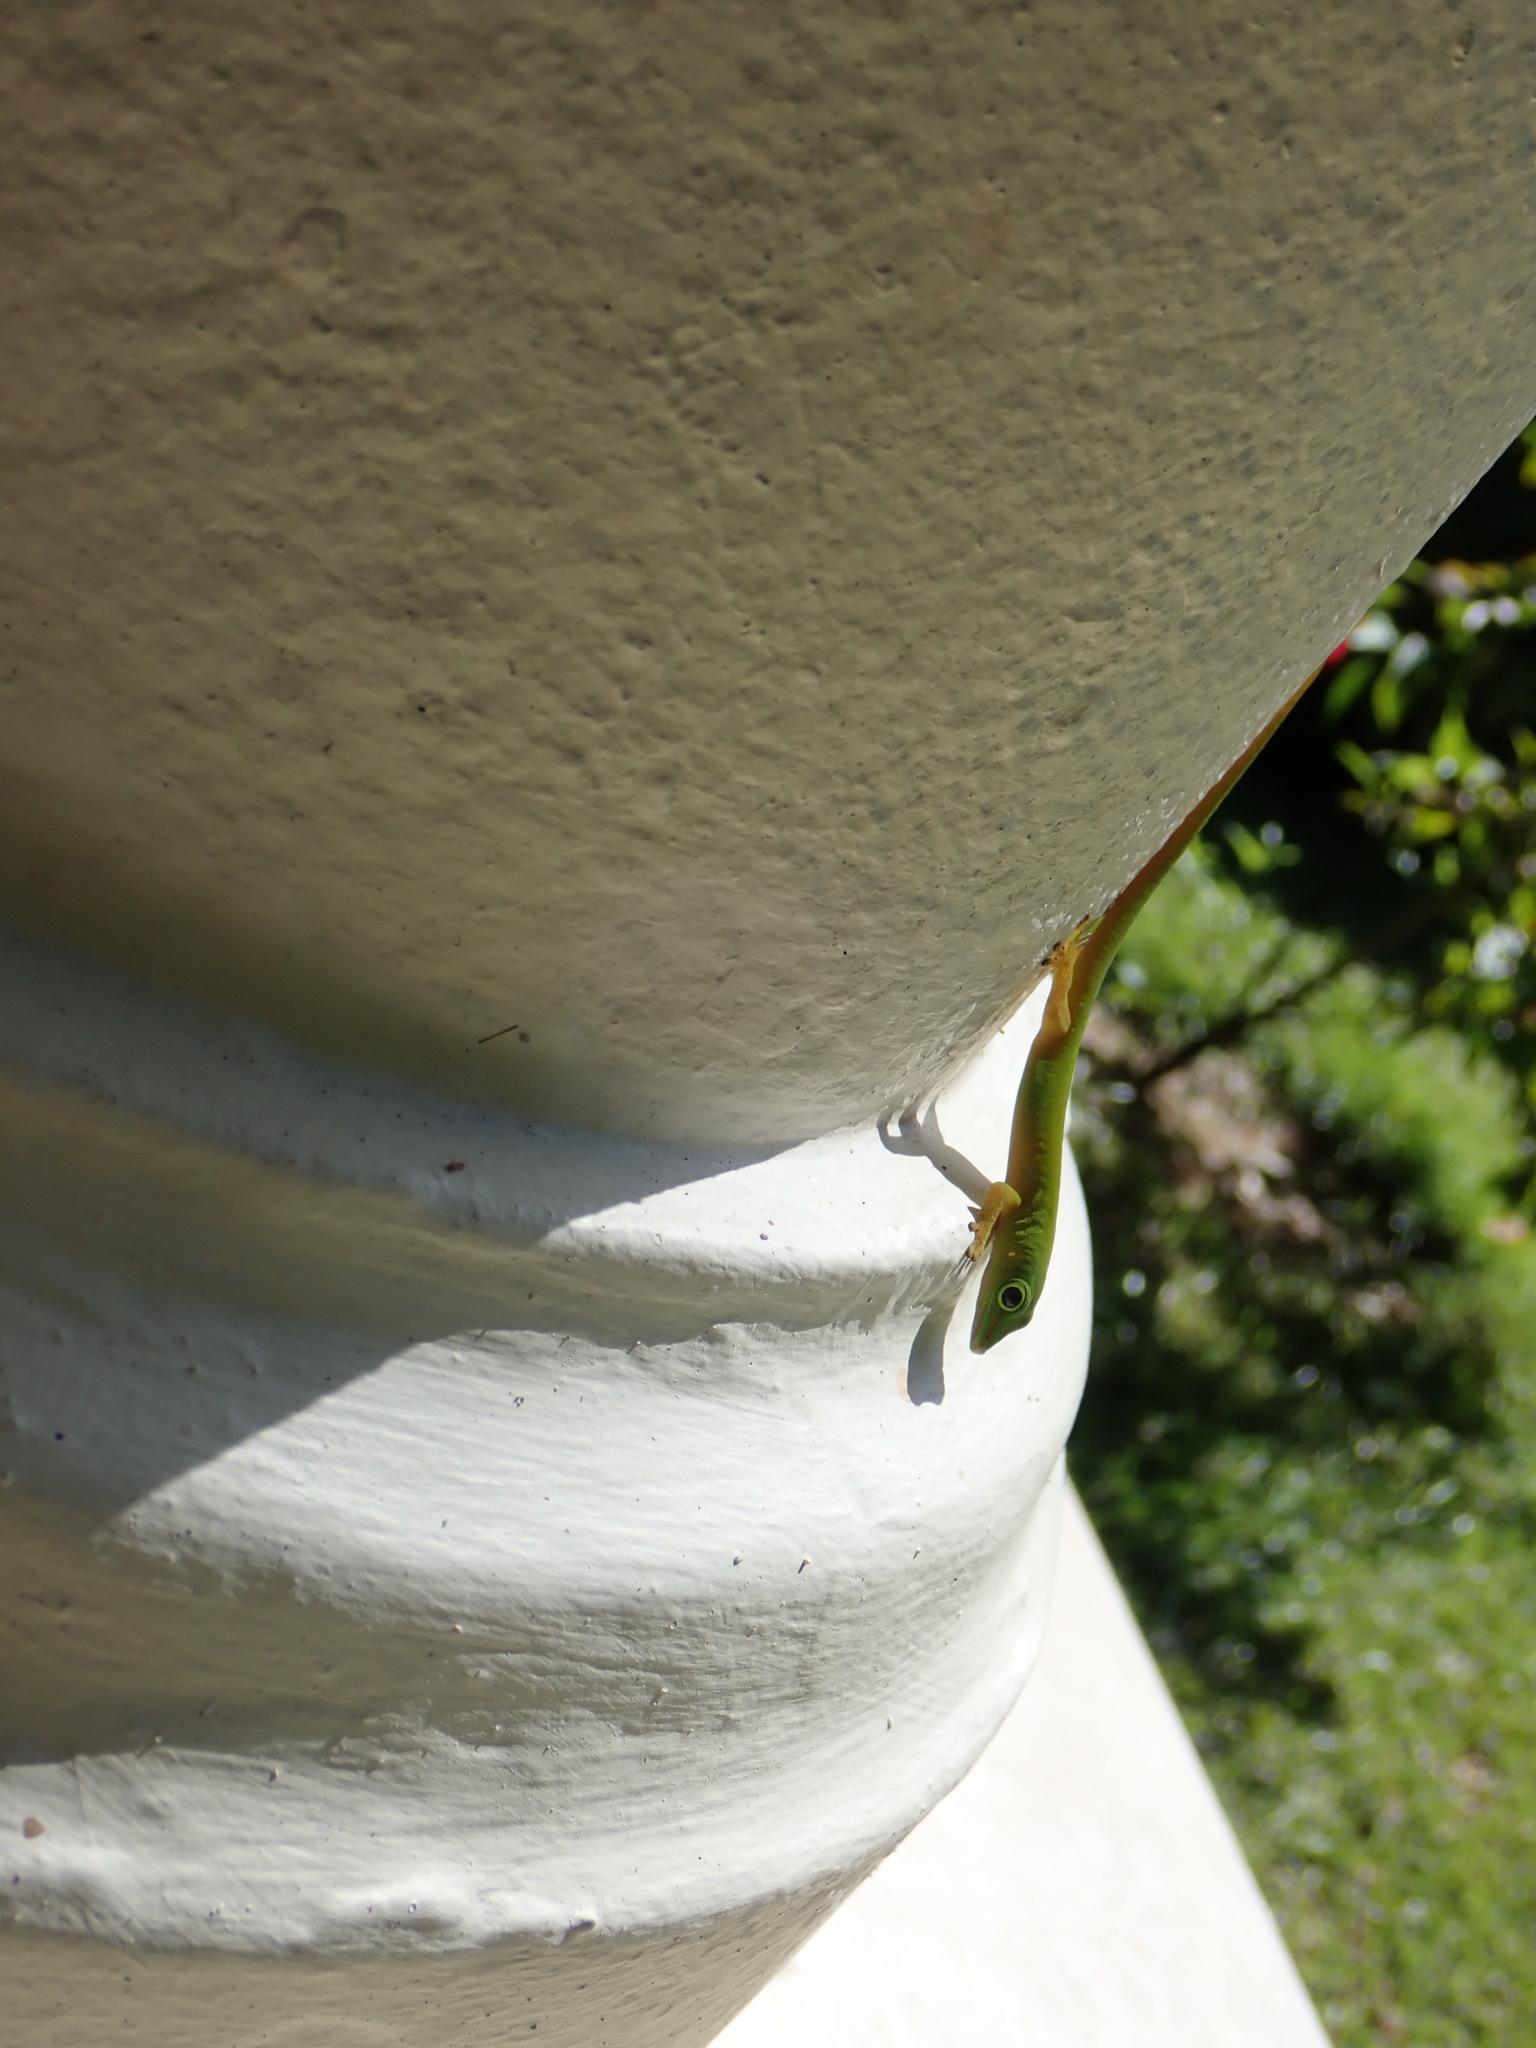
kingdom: Animalia
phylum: Chordata
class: Squamata
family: Gekkonidae
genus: Phelsuma
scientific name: Phelsuma astriata
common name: Seychelles day gecko
